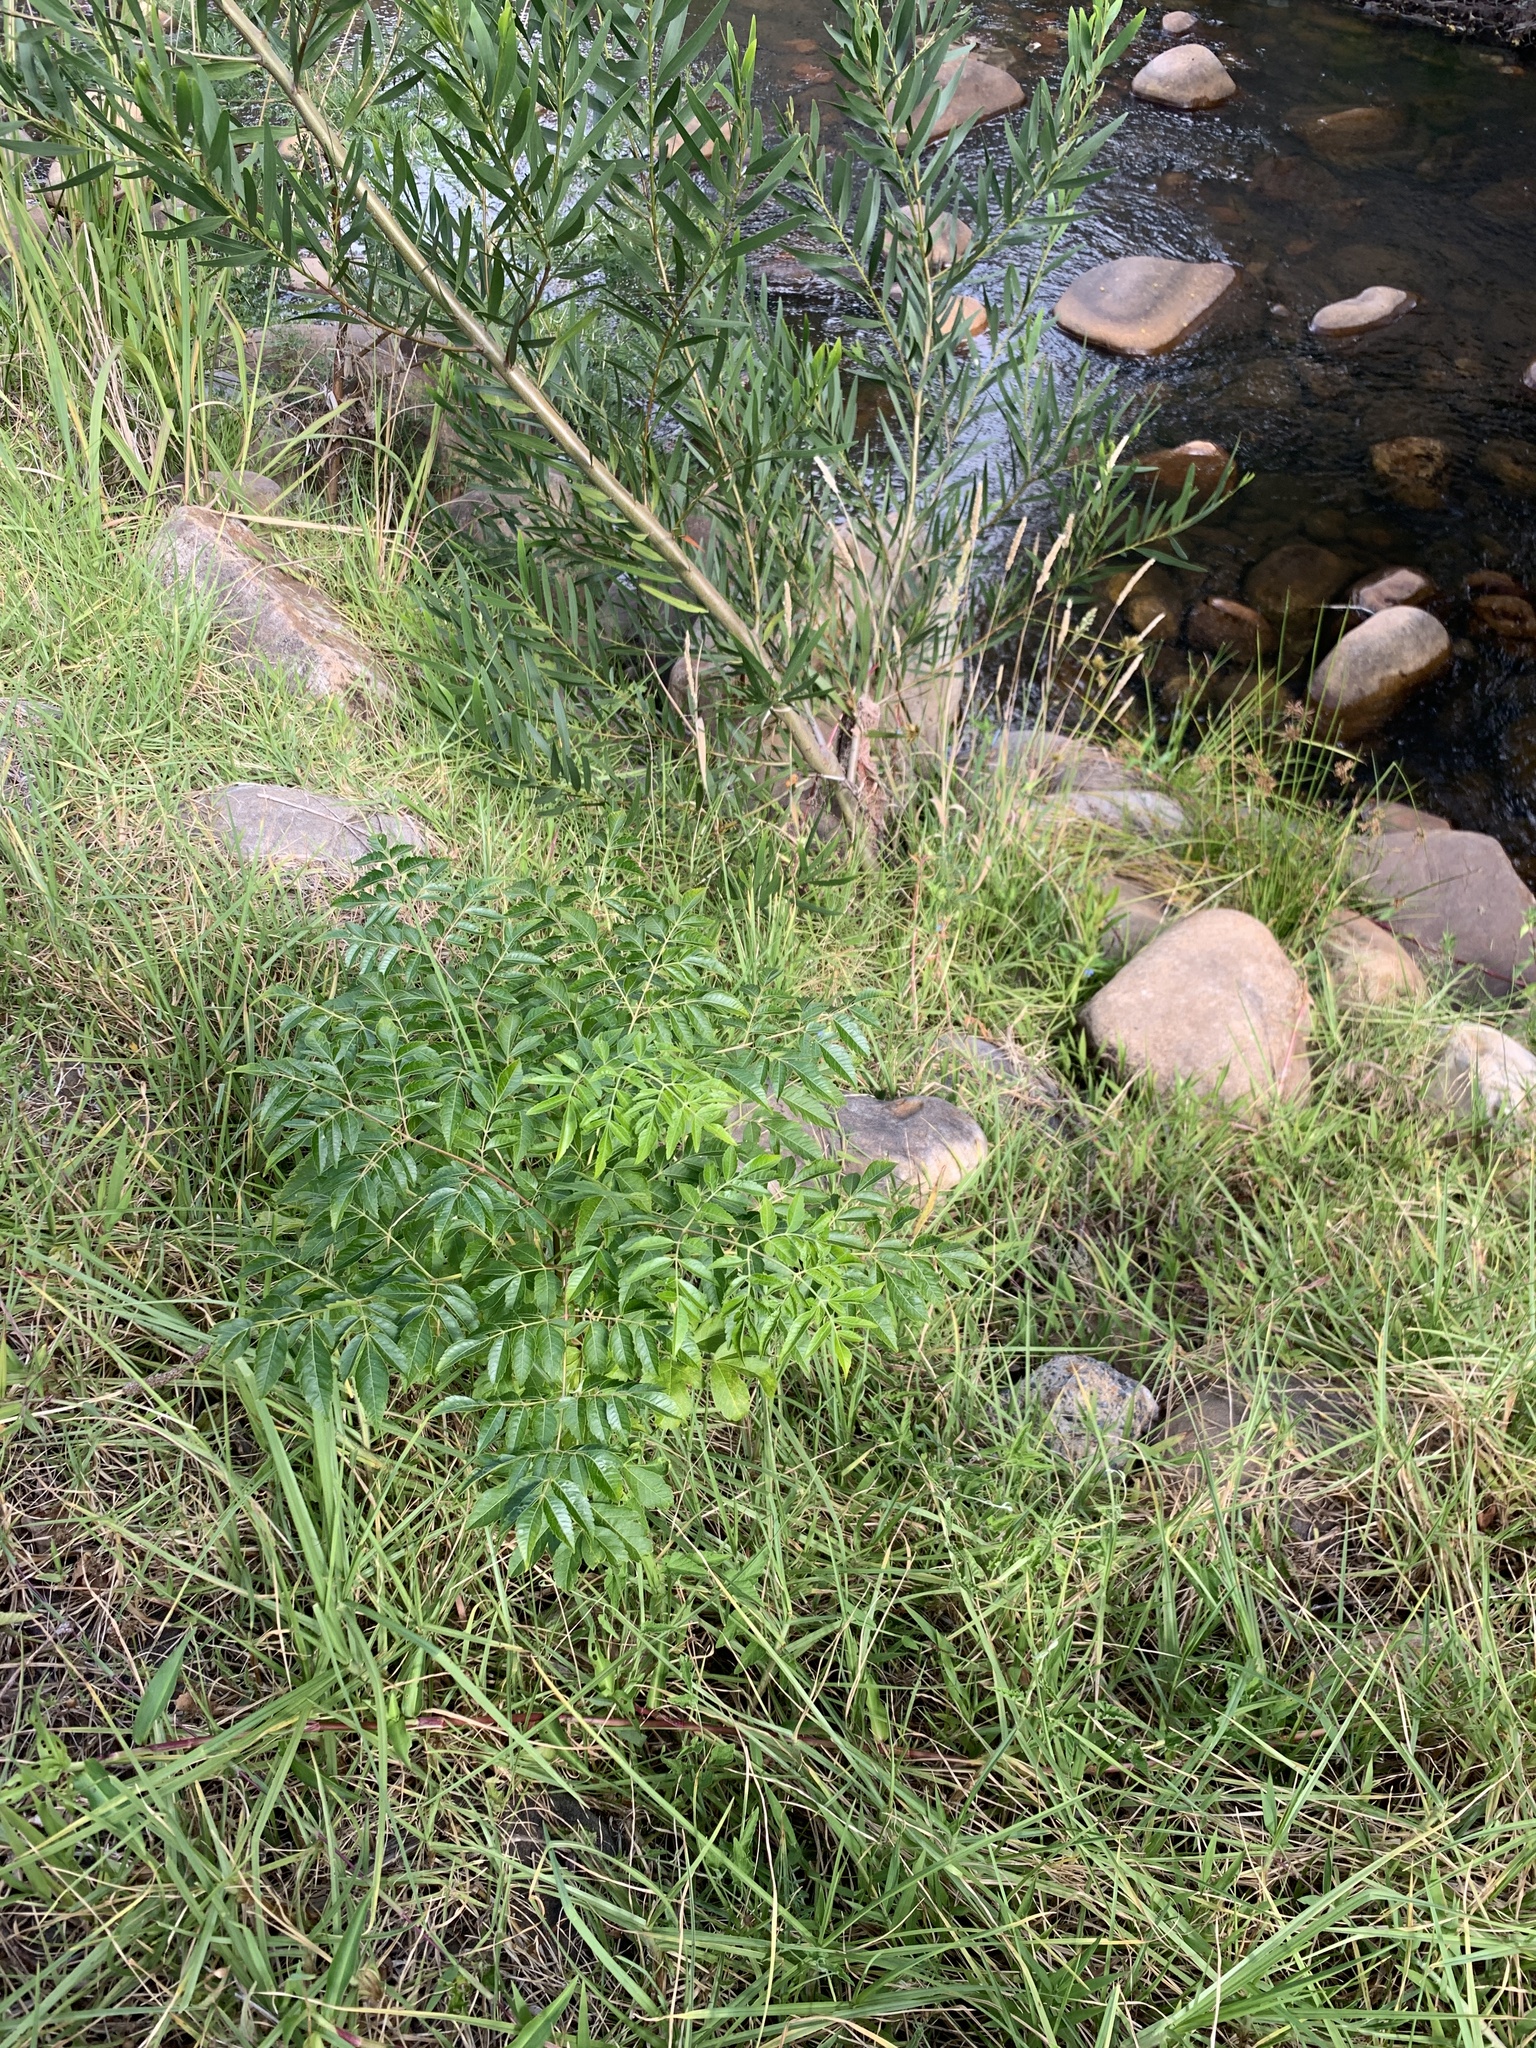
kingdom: Plantae
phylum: Tracheophyta
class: Magnoliopsida
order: Sapindales
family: Meliaceae
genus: Melia
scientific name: Melia azedarach
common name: Chinaberrytree
